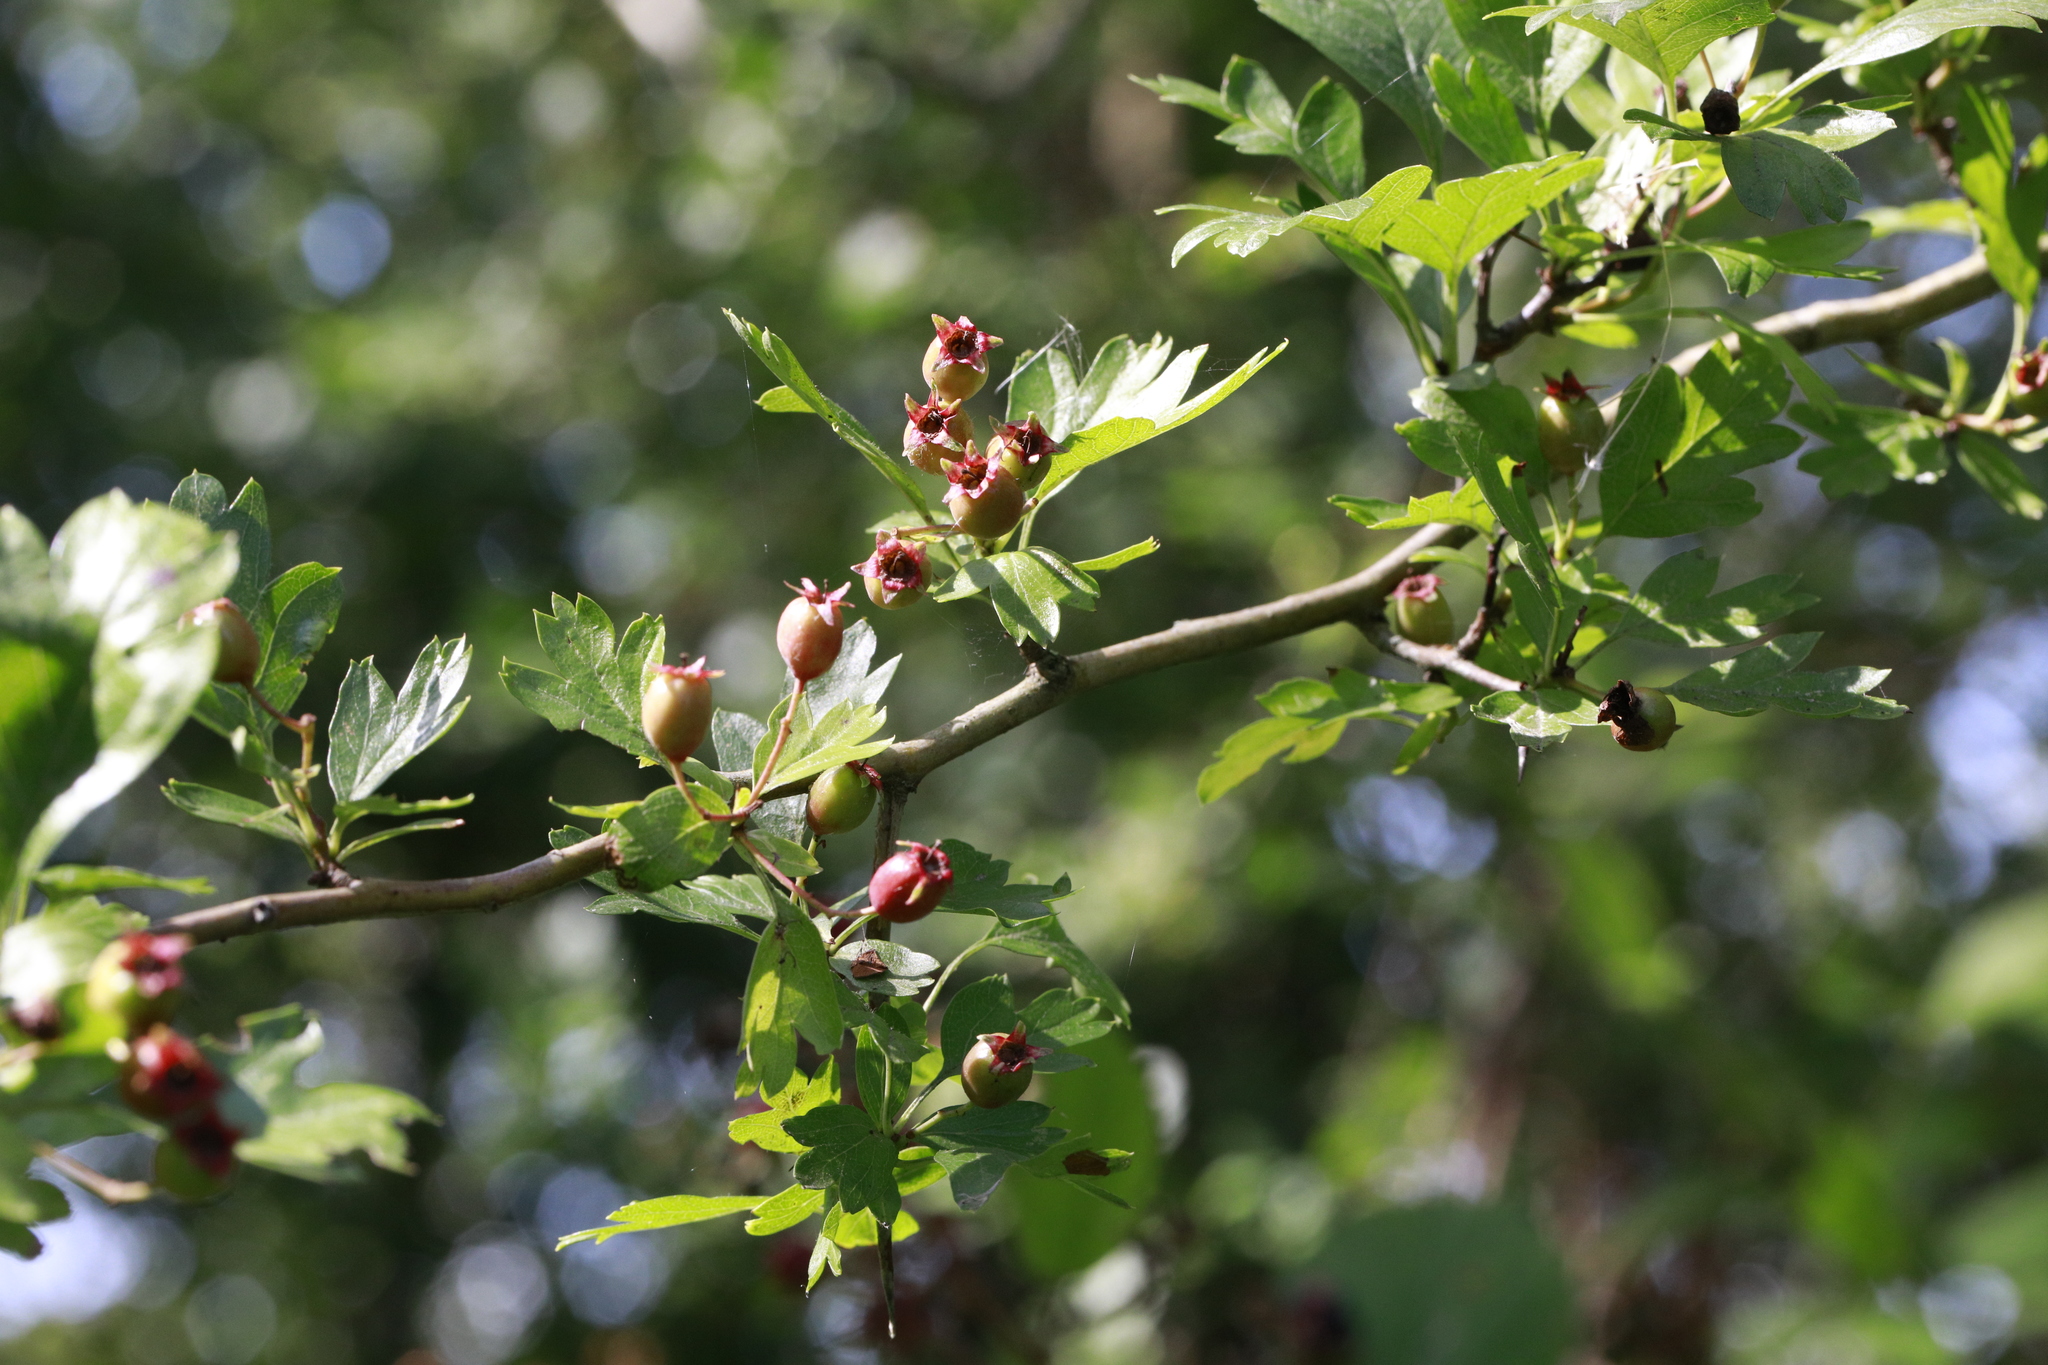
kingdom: Plantae
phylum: Tracheophyta
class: Magnoliopsida
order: Rosales
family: Rosaceae
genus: Crataegus
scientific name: Crataegus monogyna
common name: Hawthorn
